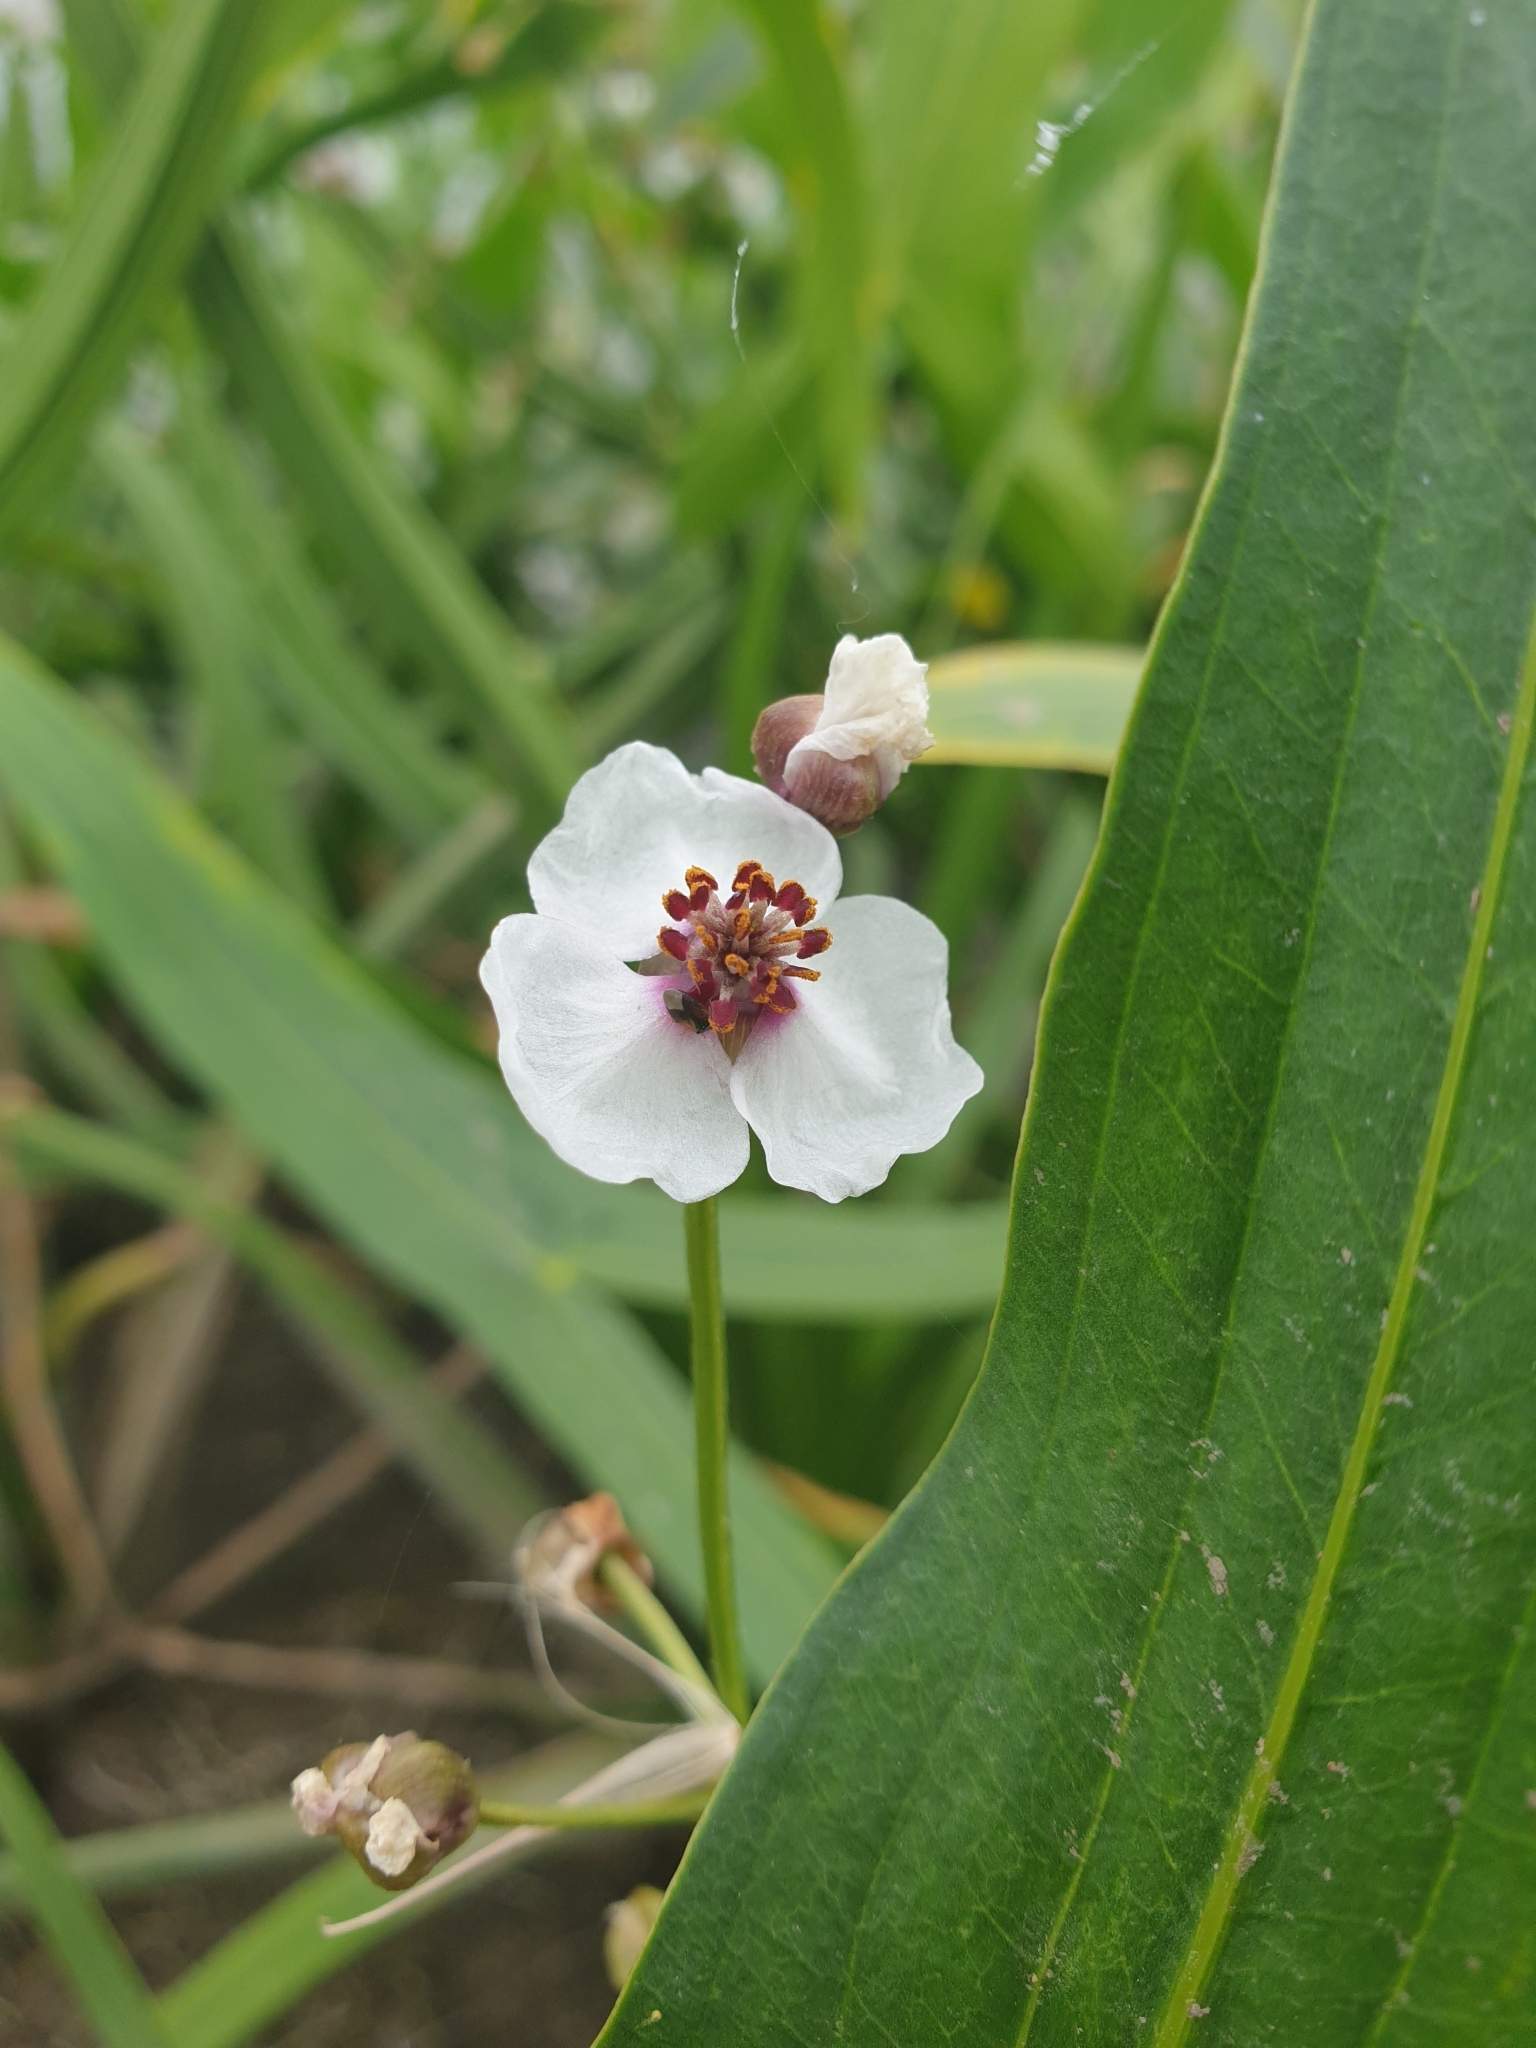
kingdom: Plantae
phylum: Tracheophyta
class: Liliopsida
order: Alismatales
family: Alismataceae
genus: Sagittaria
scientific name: Sagittaria sagittifolia
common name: Arrowhead
